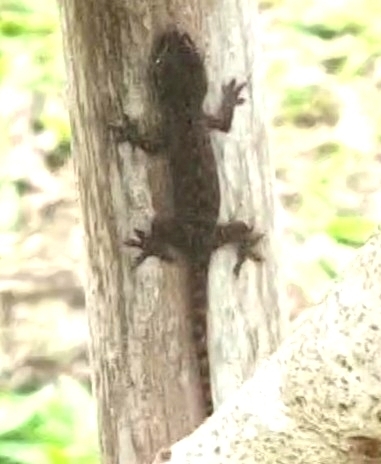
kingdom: Animalia
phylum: Chordata
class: Squamata
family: Gekkonidae
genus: Hemidactylus
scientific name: Hemidactylus frenatus
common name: Common house gecko
